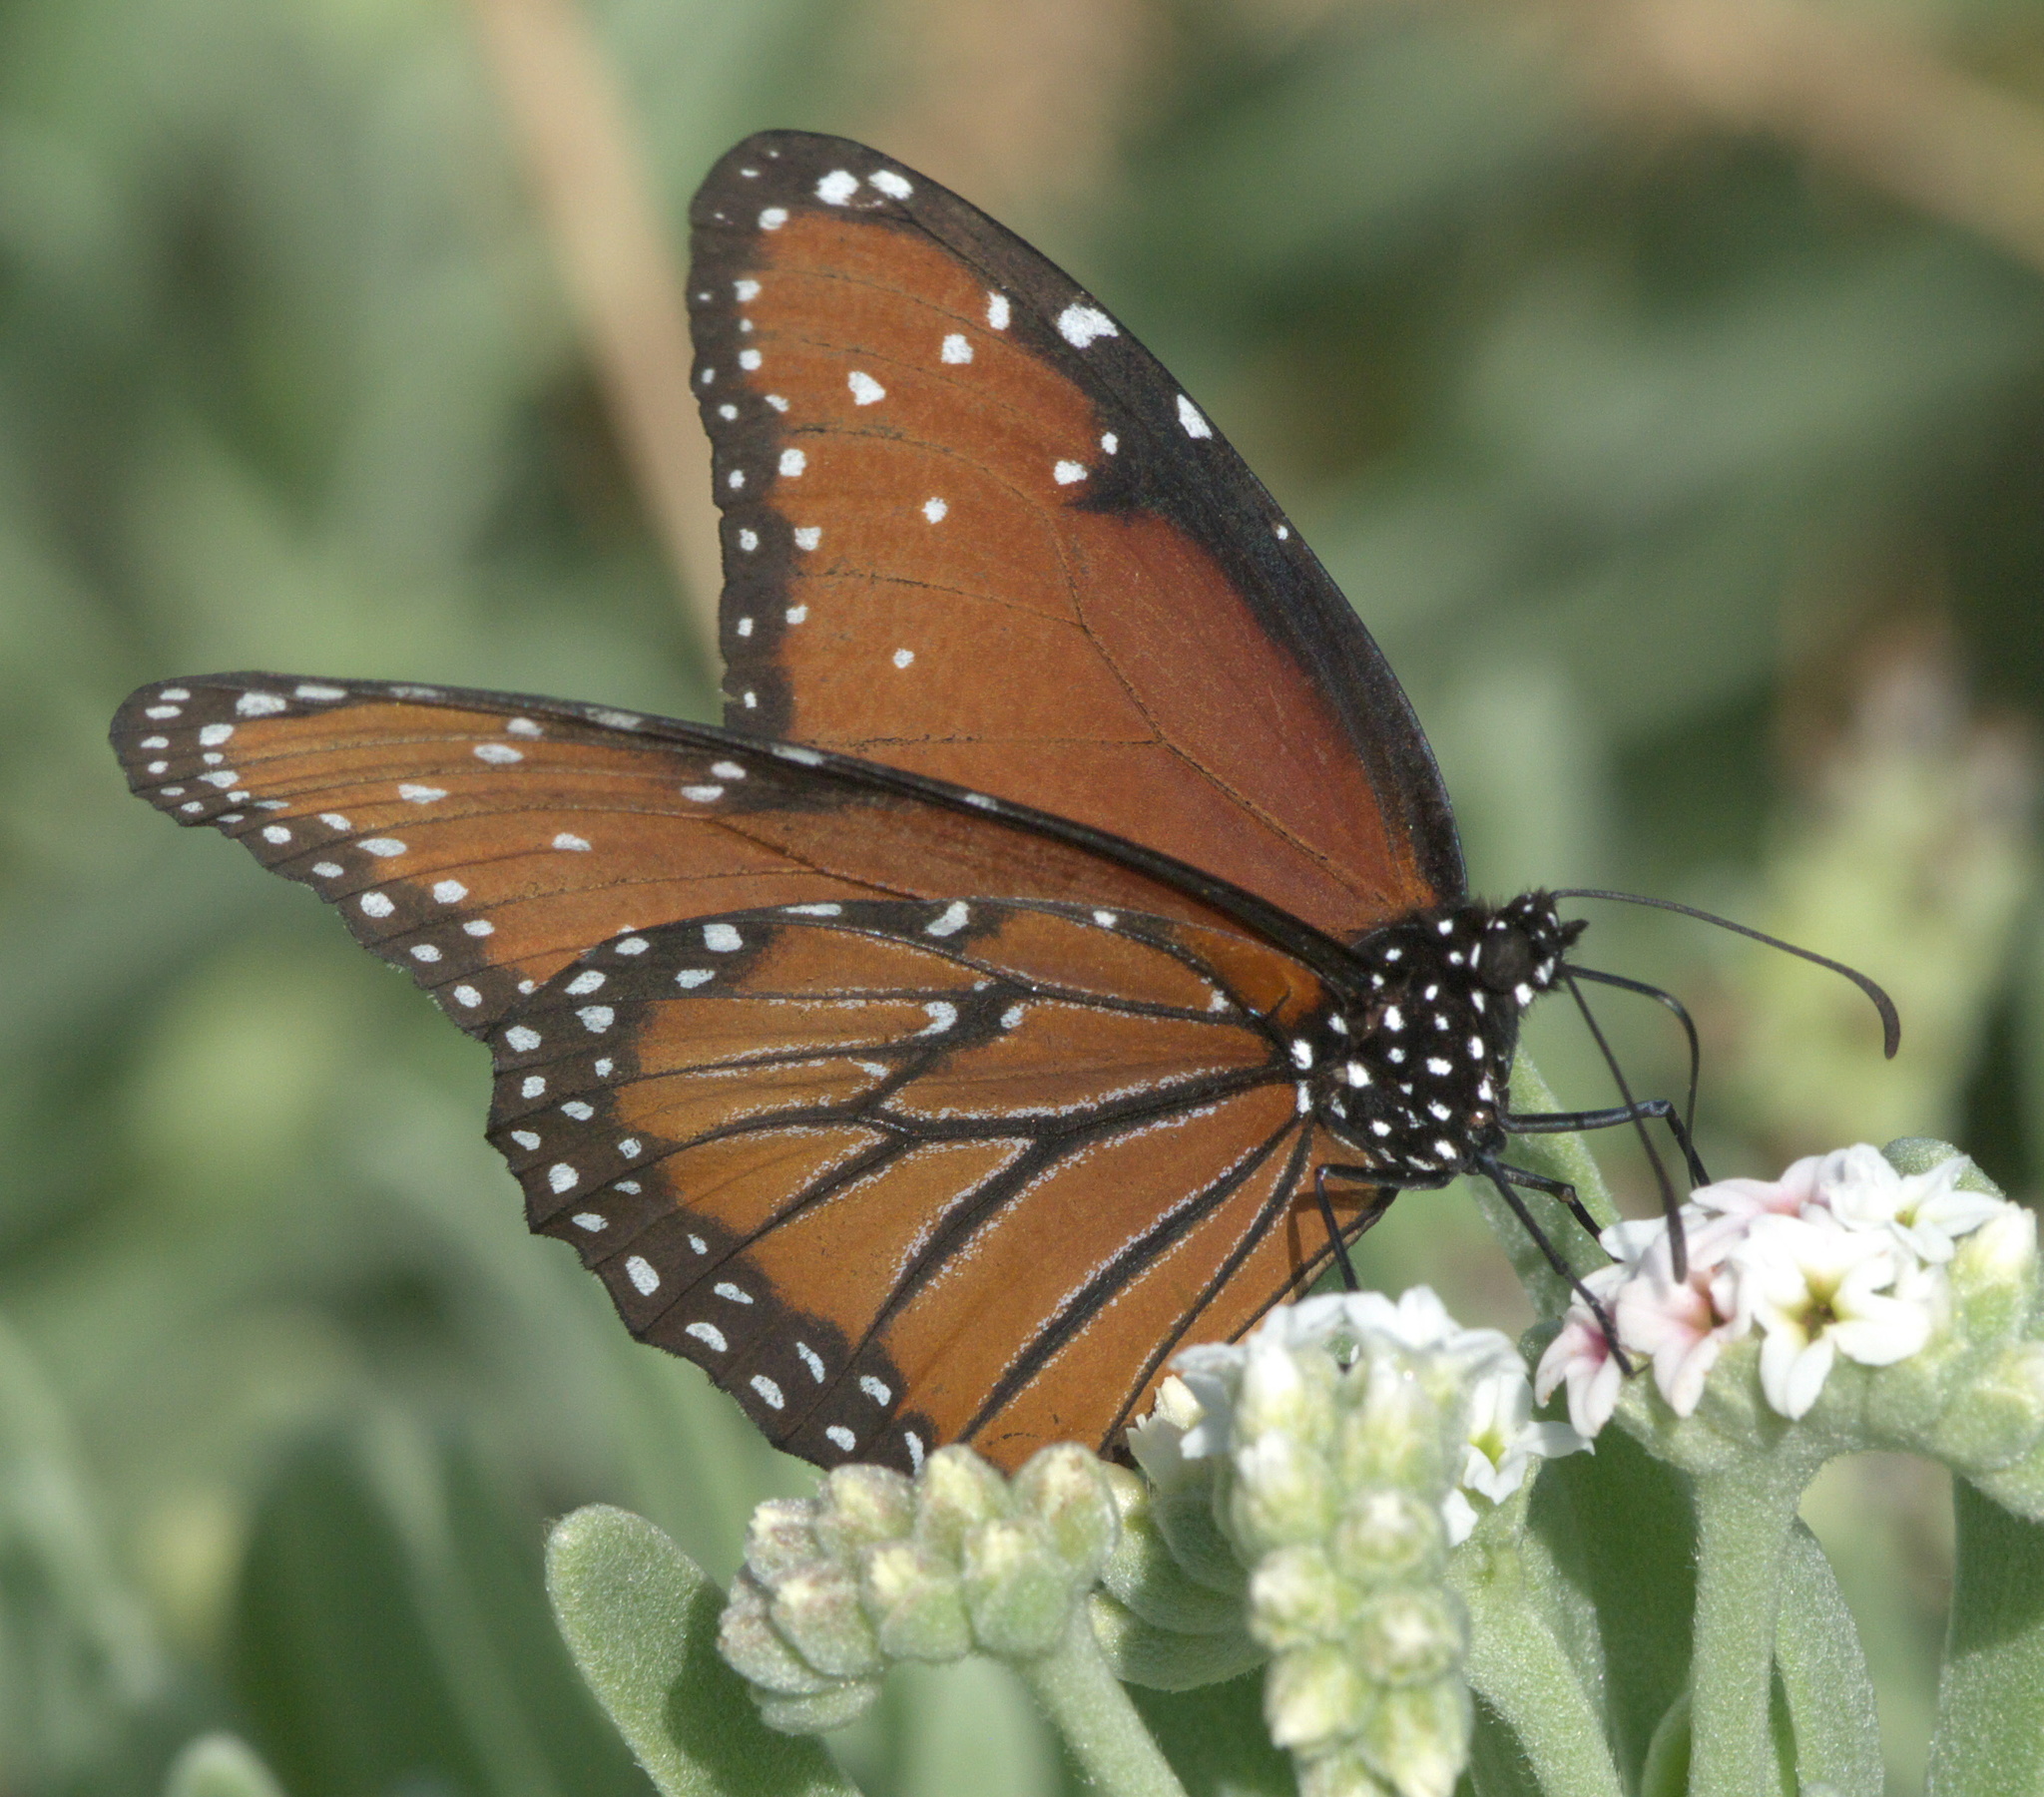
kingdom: Animalia
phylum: Arthropoda
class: Insecta
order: Lepidoptera
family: Nymphalidae
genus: Danaus
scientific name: Danaus gilippus
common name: Queen
